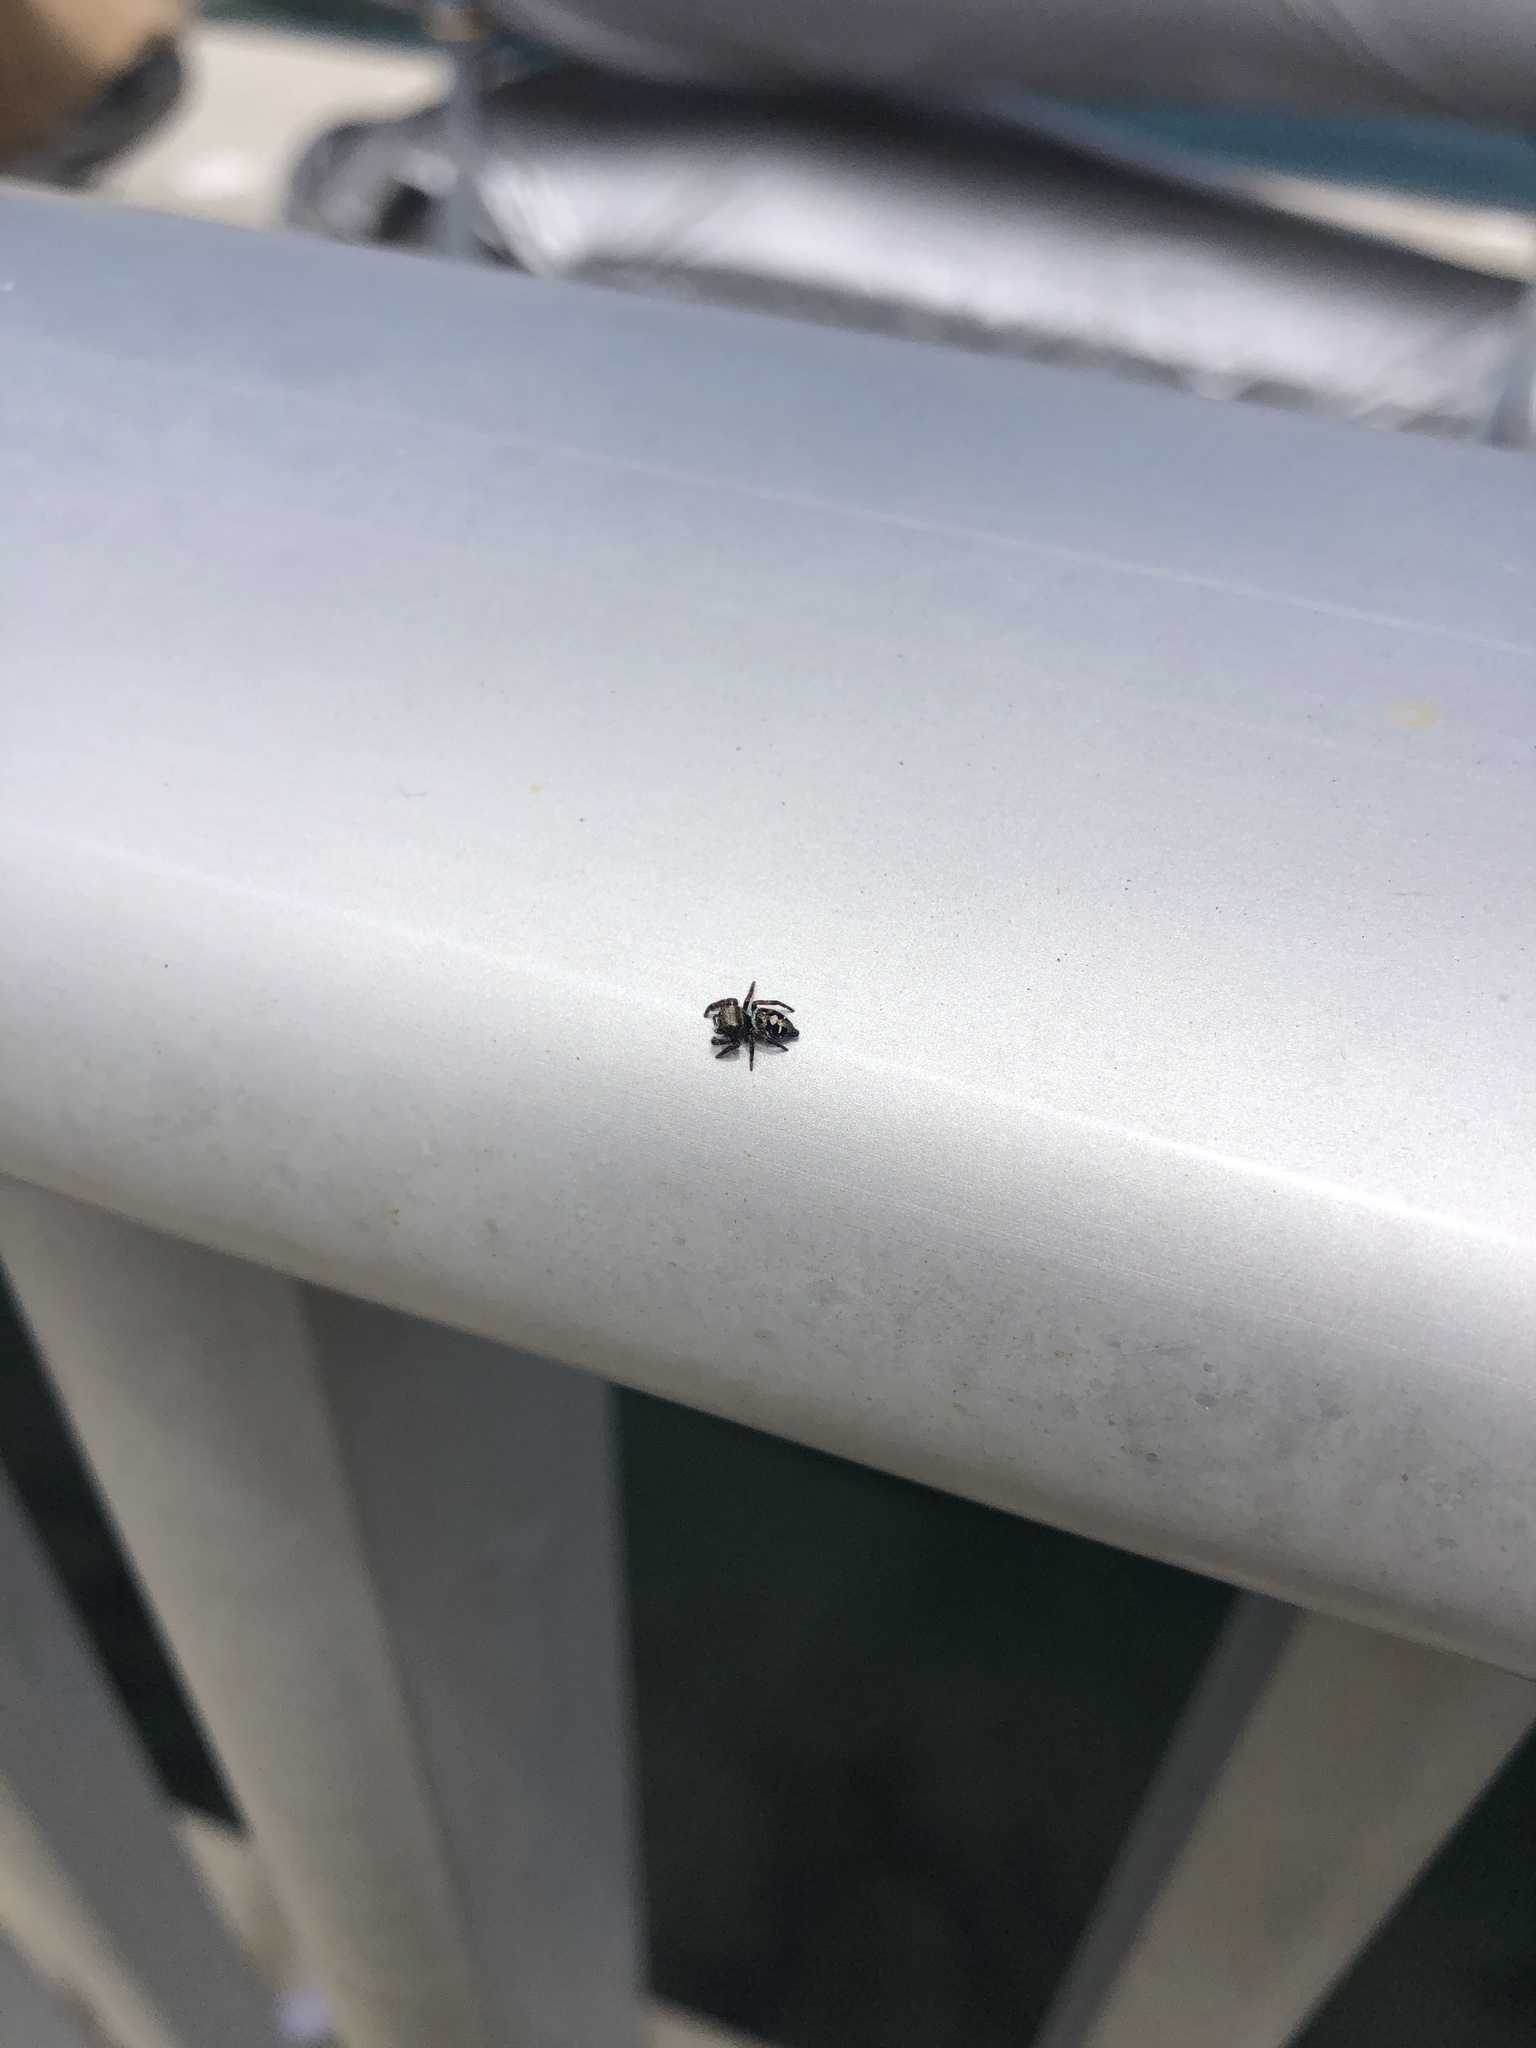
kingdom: Animalia
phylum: Arthropoda
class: Arachnida
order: Araneae
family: Salticidae
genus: Phidippus
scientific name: Phidippus audax
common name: Bold jumper
